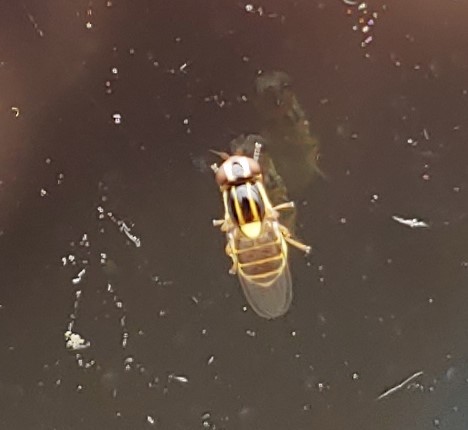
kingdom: Animalia
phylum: Arthropoda
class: Insecta
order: Diptera
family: Chloropidae
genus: Thaumatomyia
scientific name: Thaumatomyia glabra
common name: Chloropid fly
